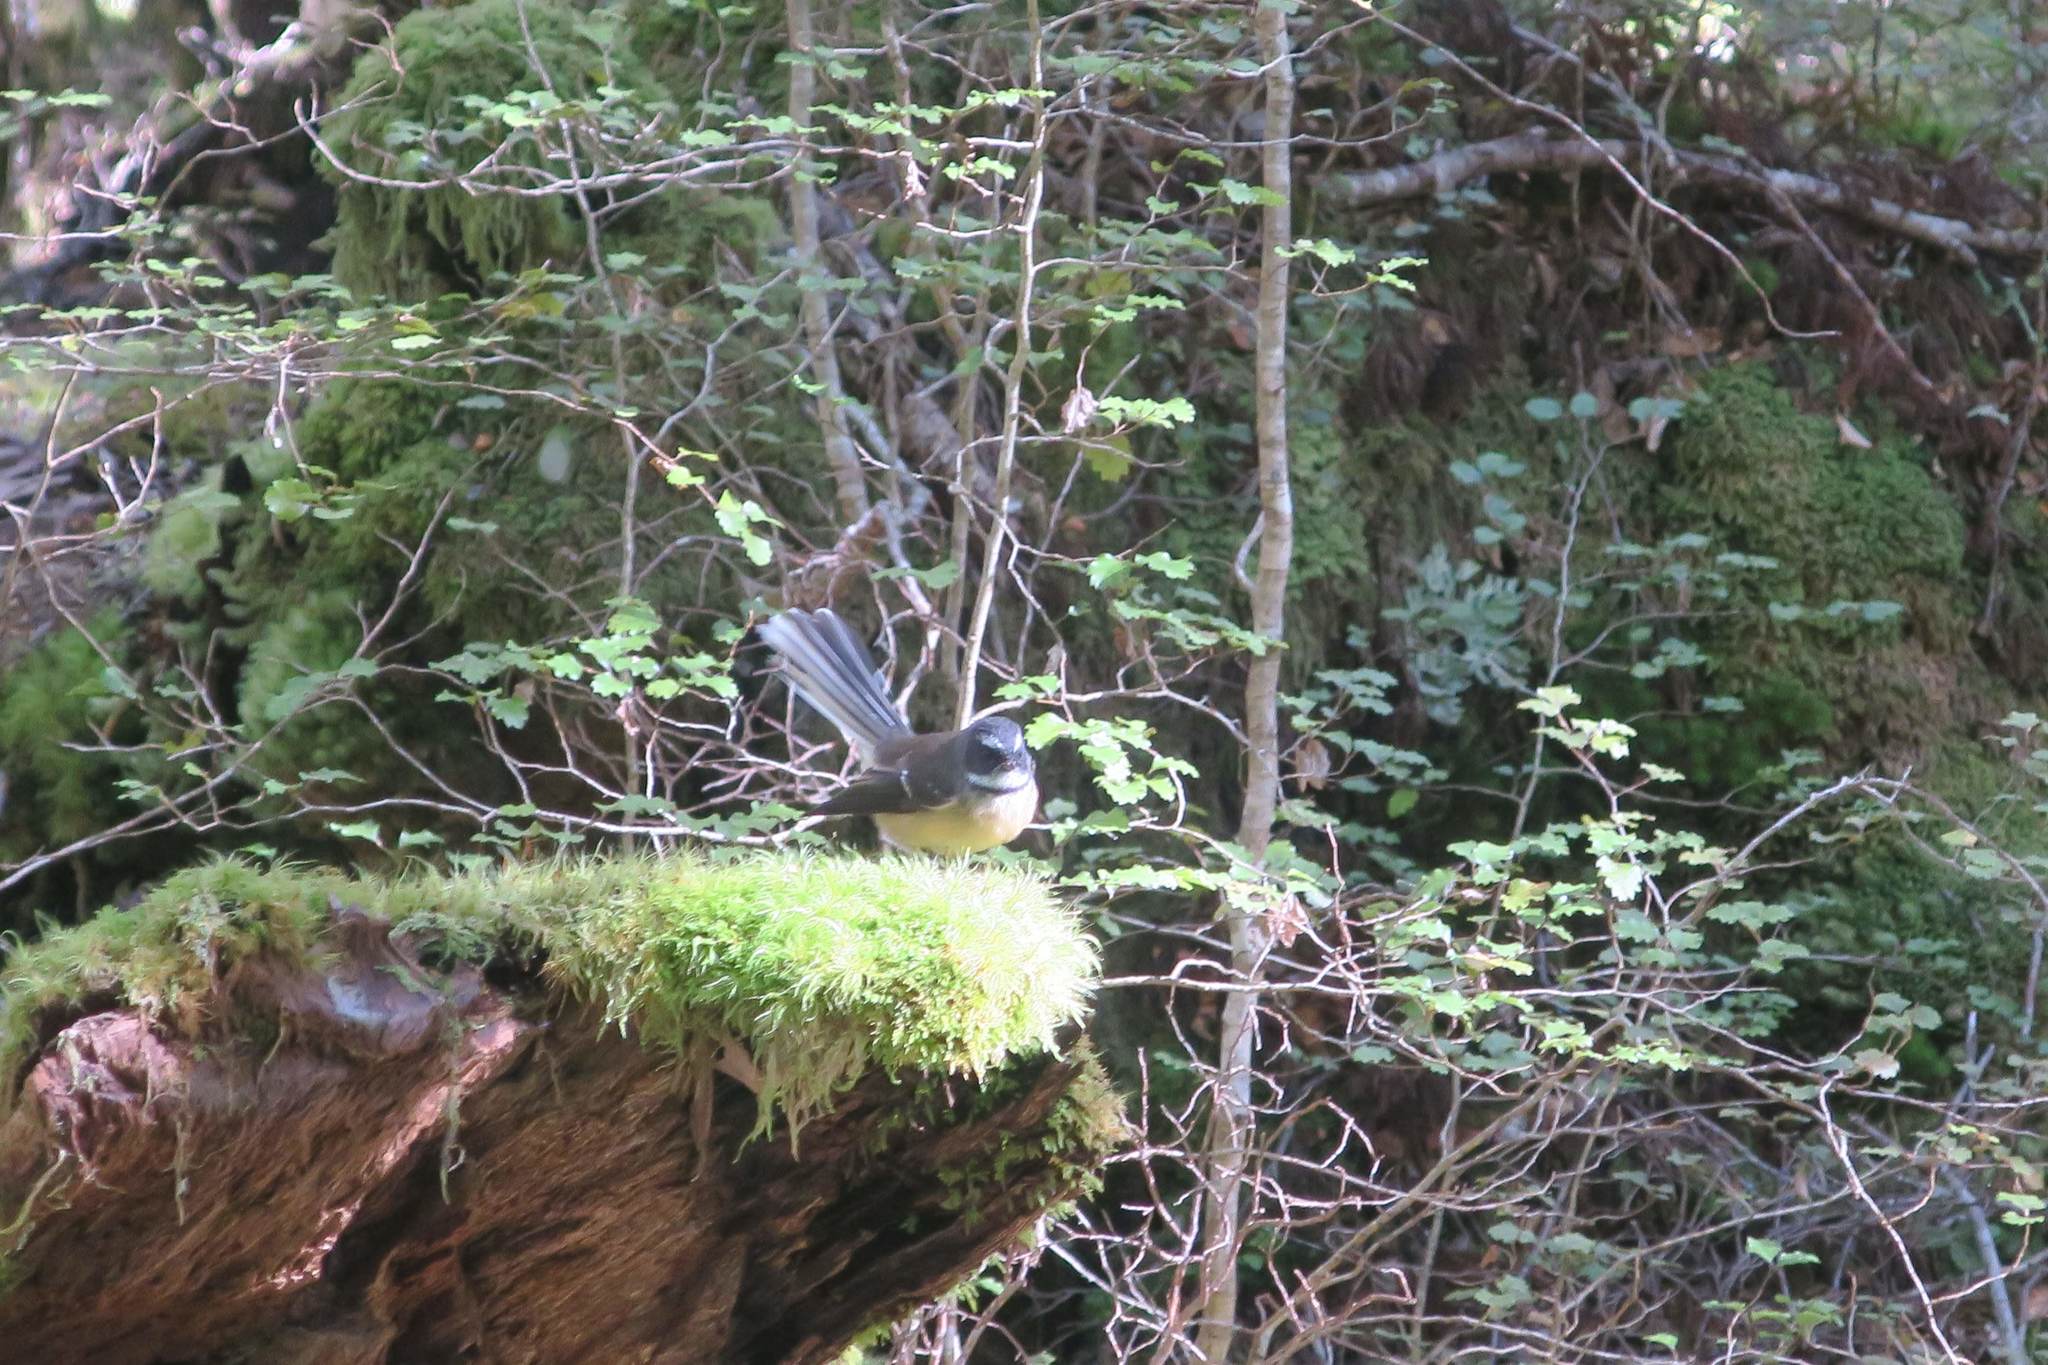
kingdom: Animalia
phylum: Chordata
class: Aves
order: Passeriformes
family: Rhipiduridae
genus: Rhipidura
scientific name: Rhipidura fuliginosa
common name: New zealand fantail
